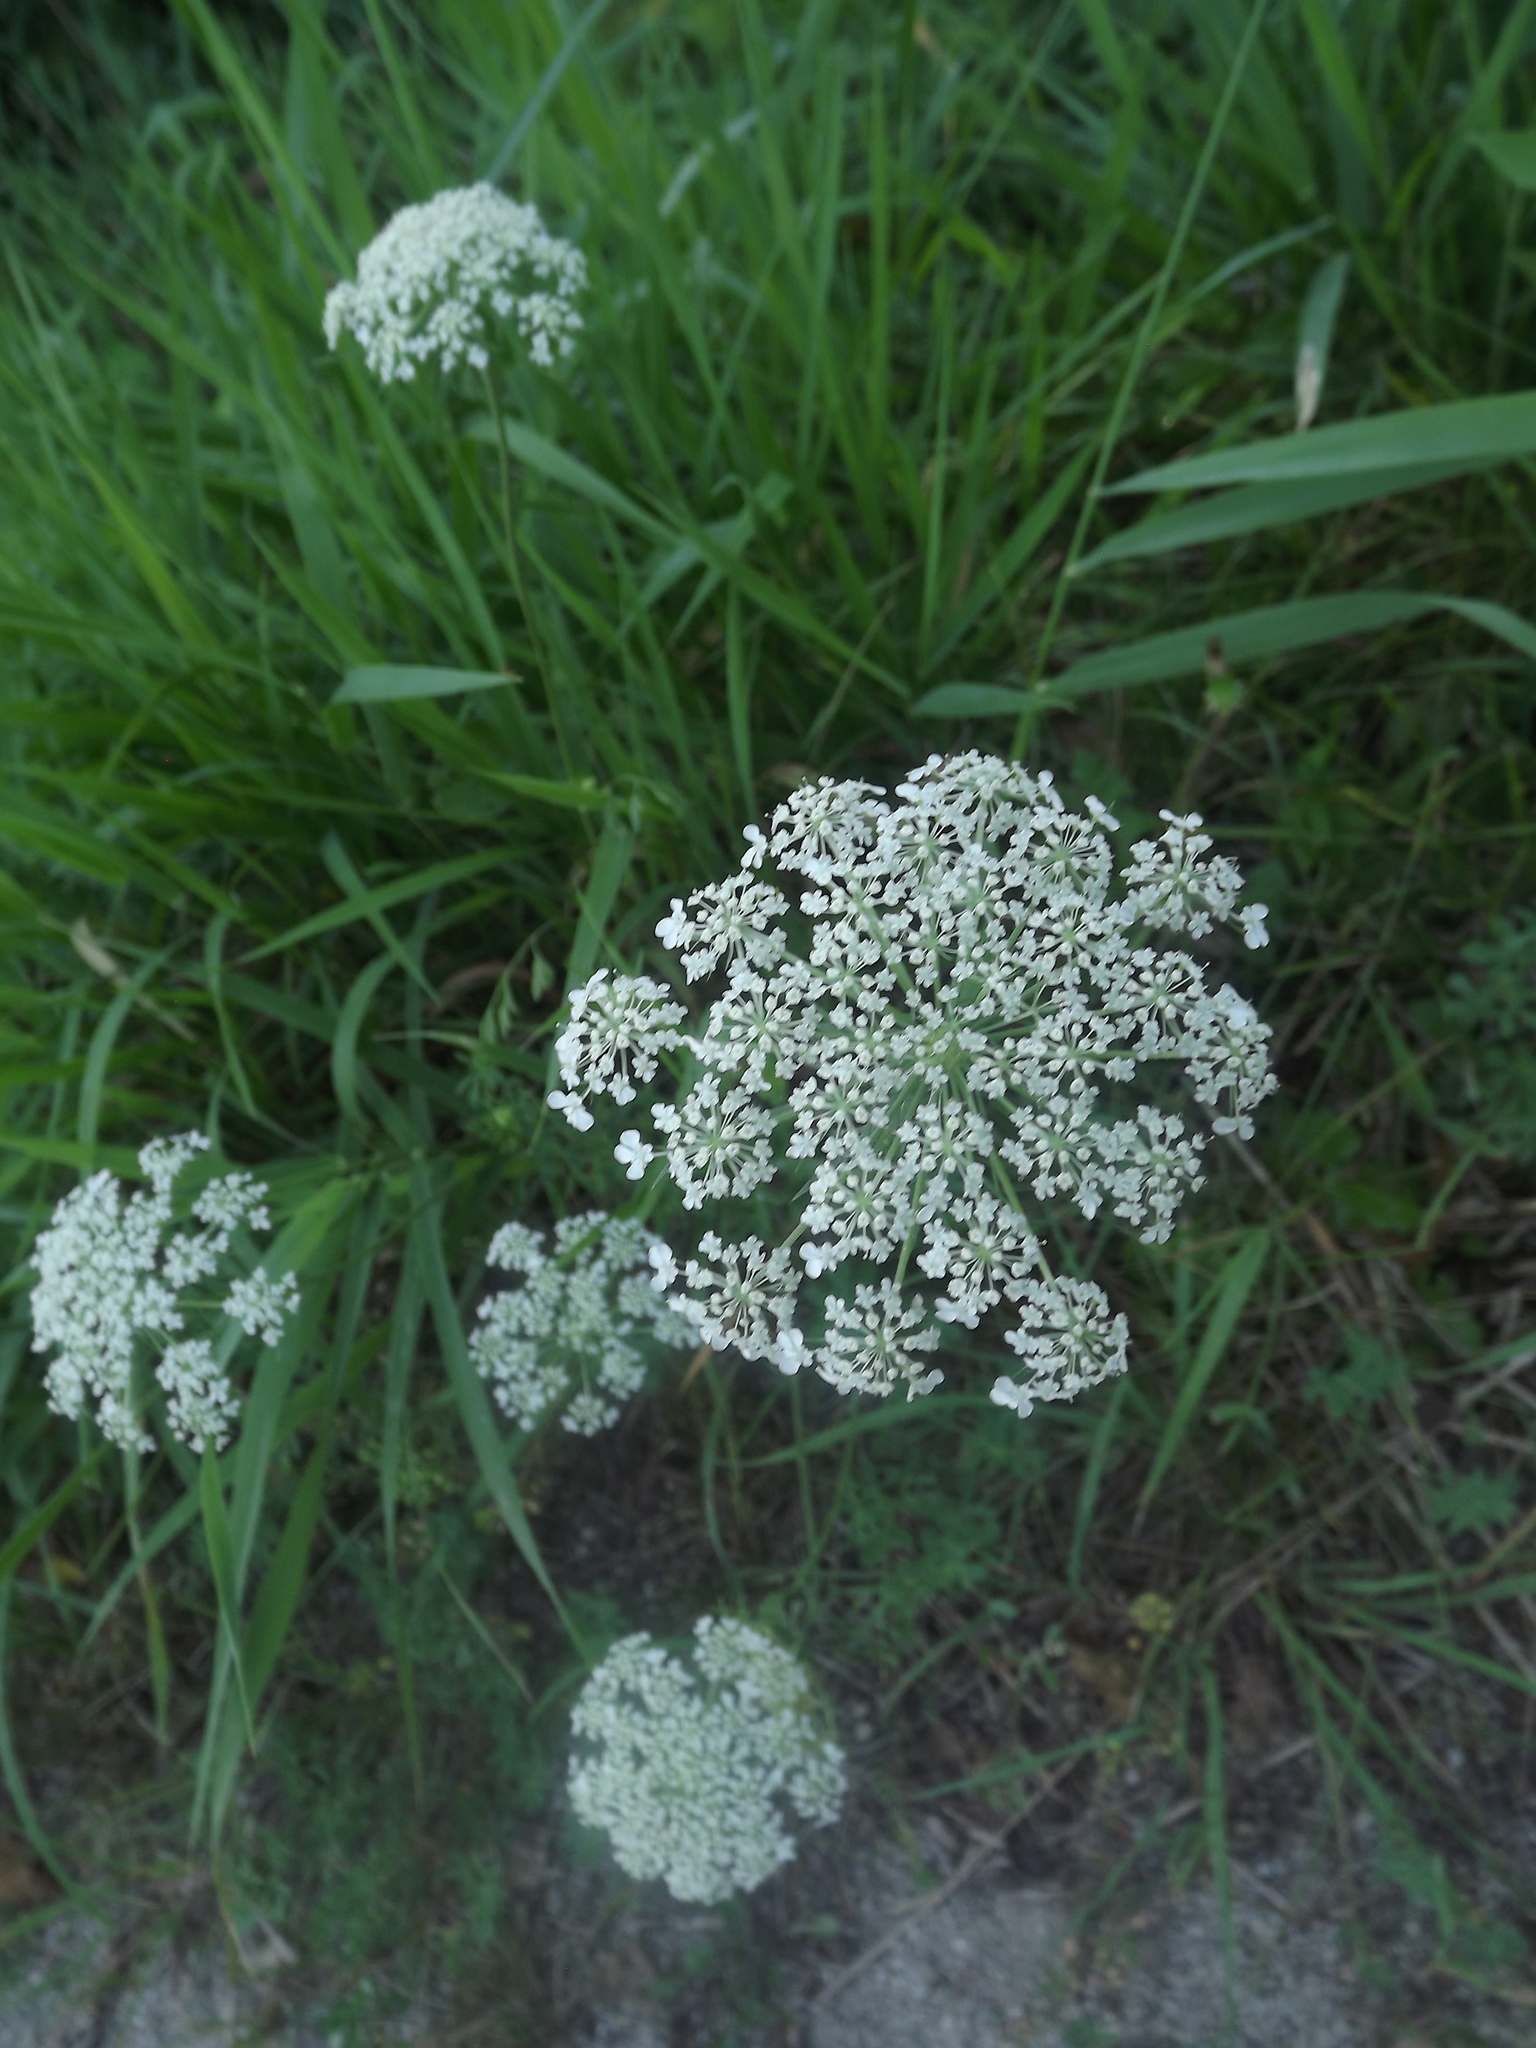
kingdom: Plantae
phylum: Tracheophyta
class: Magnoliopsida
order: Apiales
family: Apiaceae
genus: Daucus
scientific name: Daucus carota
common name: Wild carrot
